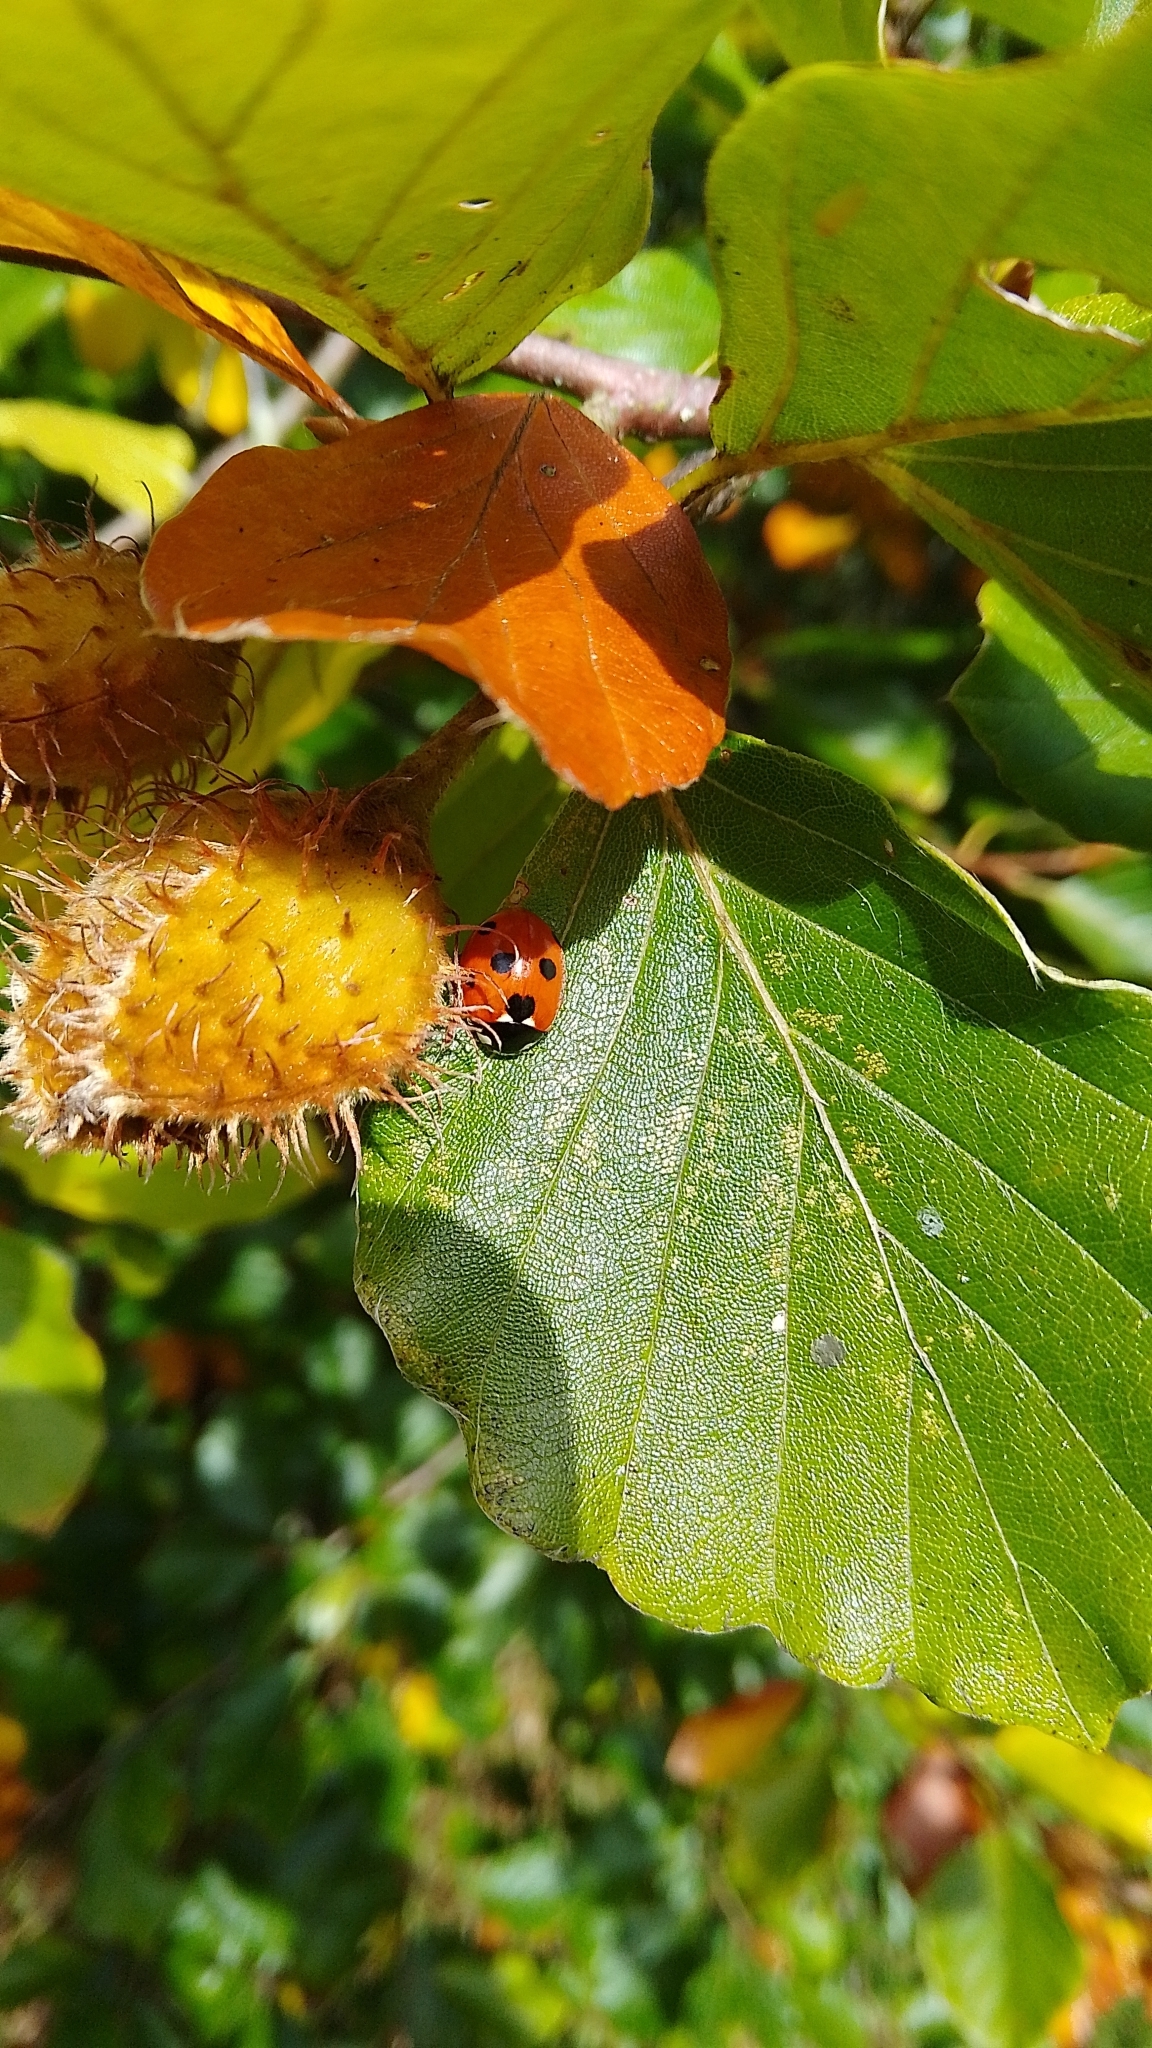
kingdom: Animalia
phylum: Arthropoda
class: Insecta
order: Coleoptera
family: Coccinellidae
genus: Coccinella
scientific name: Coccinella septempunctata
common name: Sevenspotted lady beetle
